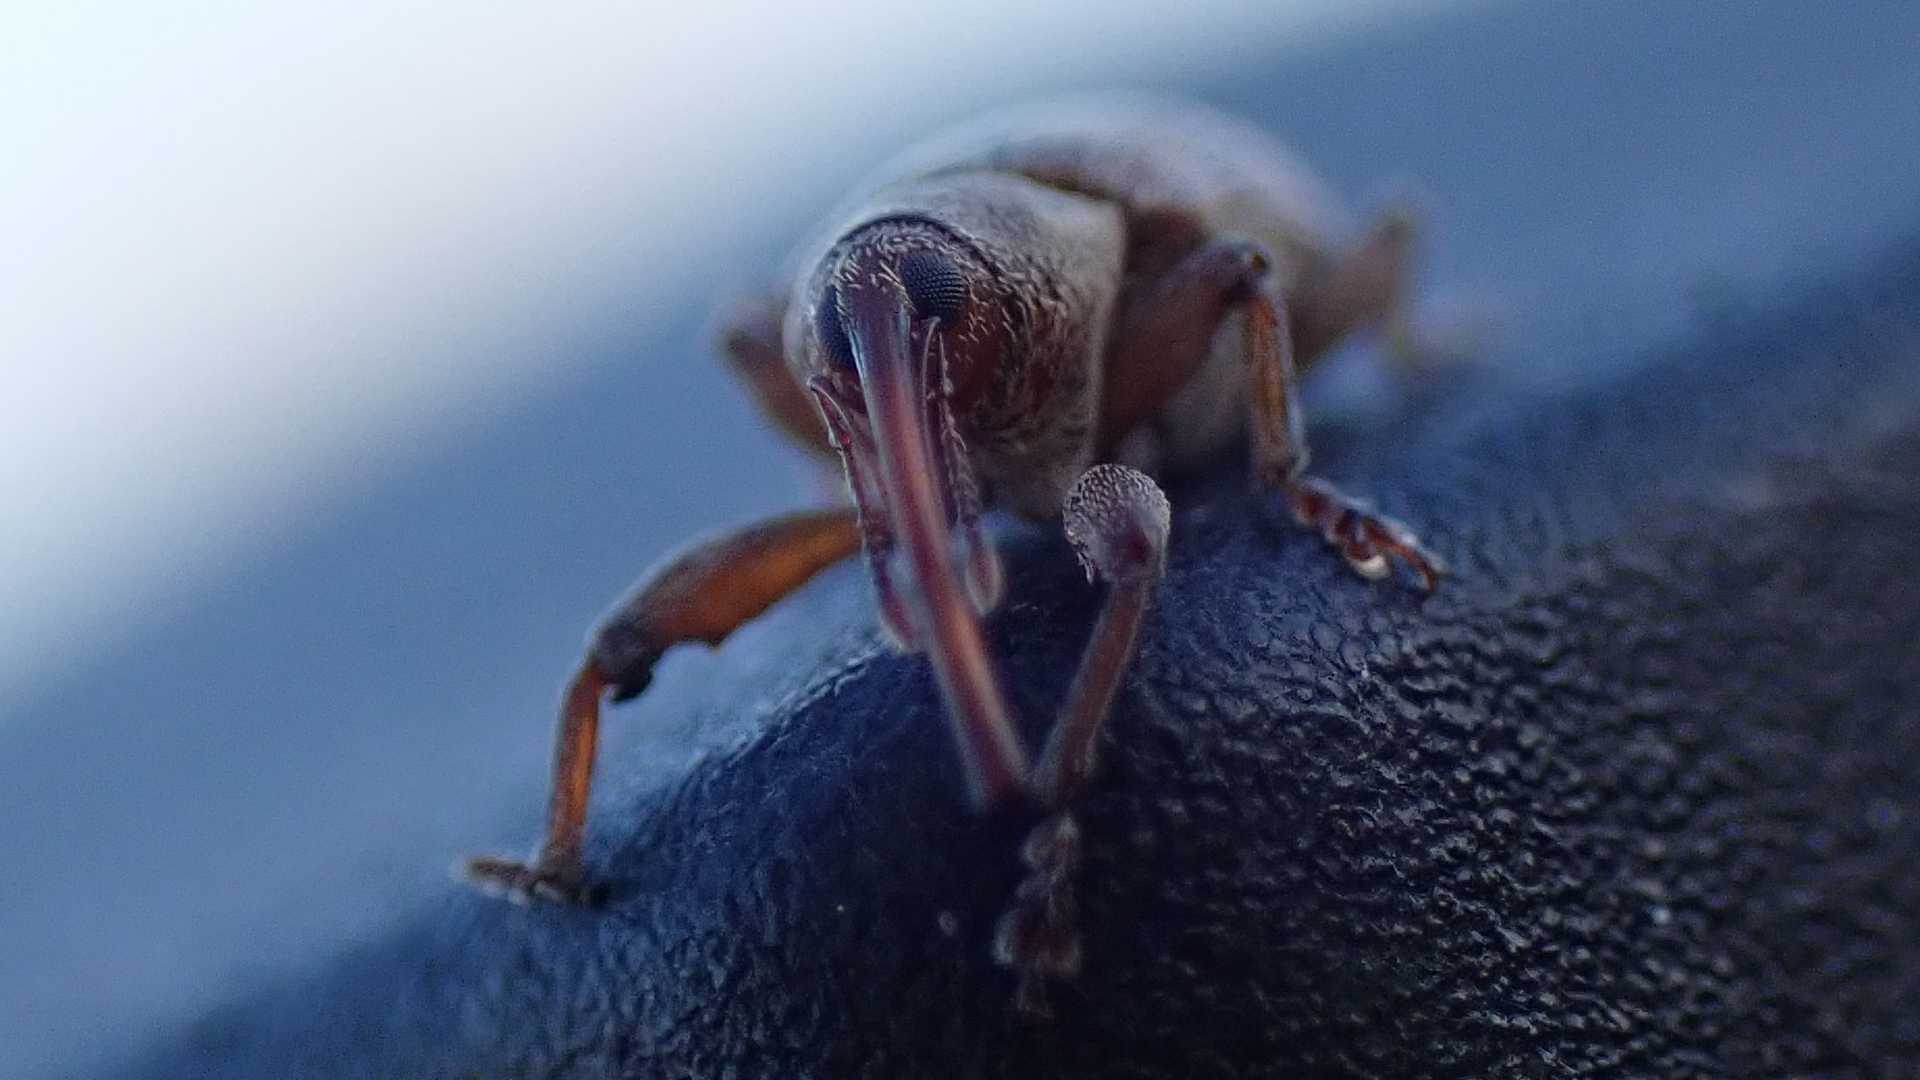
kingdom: Animalia
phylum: Arthropoda
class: Insecta
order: Coleoptera
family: Brachyceridae
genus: Erirhinus
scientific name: Erirhinus filirostris
